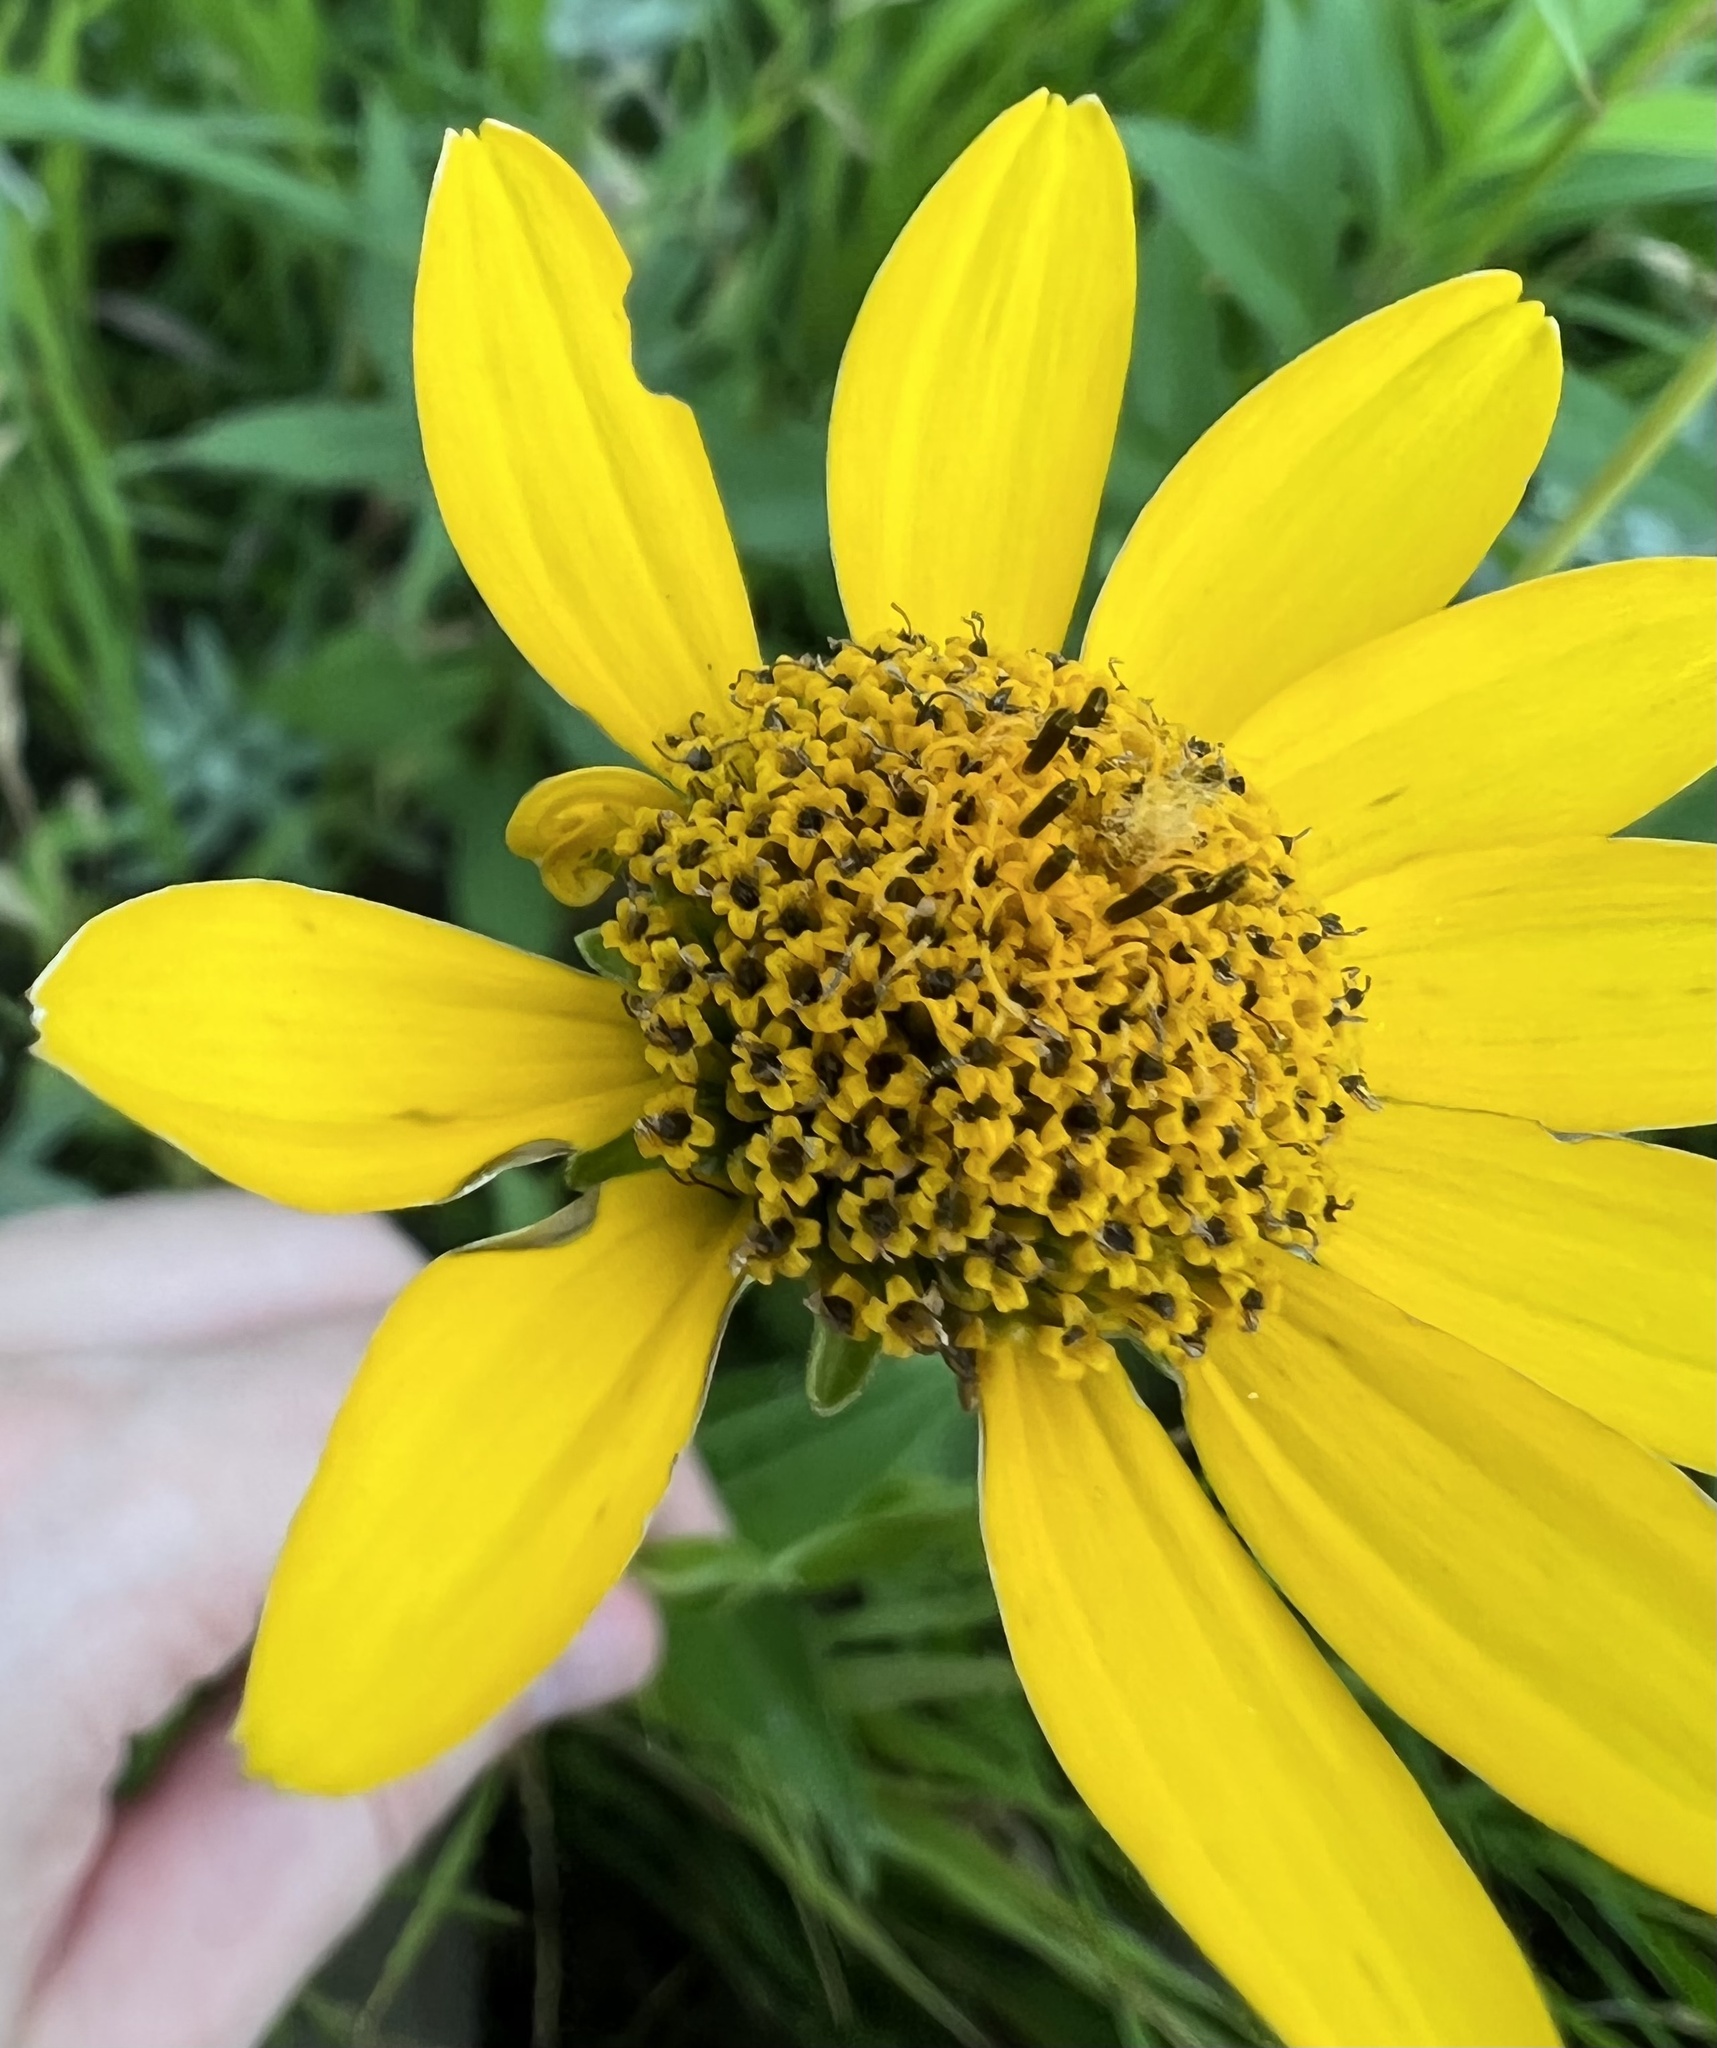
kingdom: Plantae
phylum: Tracheophyta
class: Magnoliopsida
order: Asterales
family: Asteraceae
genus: Heliopsis
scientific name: Heliopsis helianthoides
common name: False sunflower
